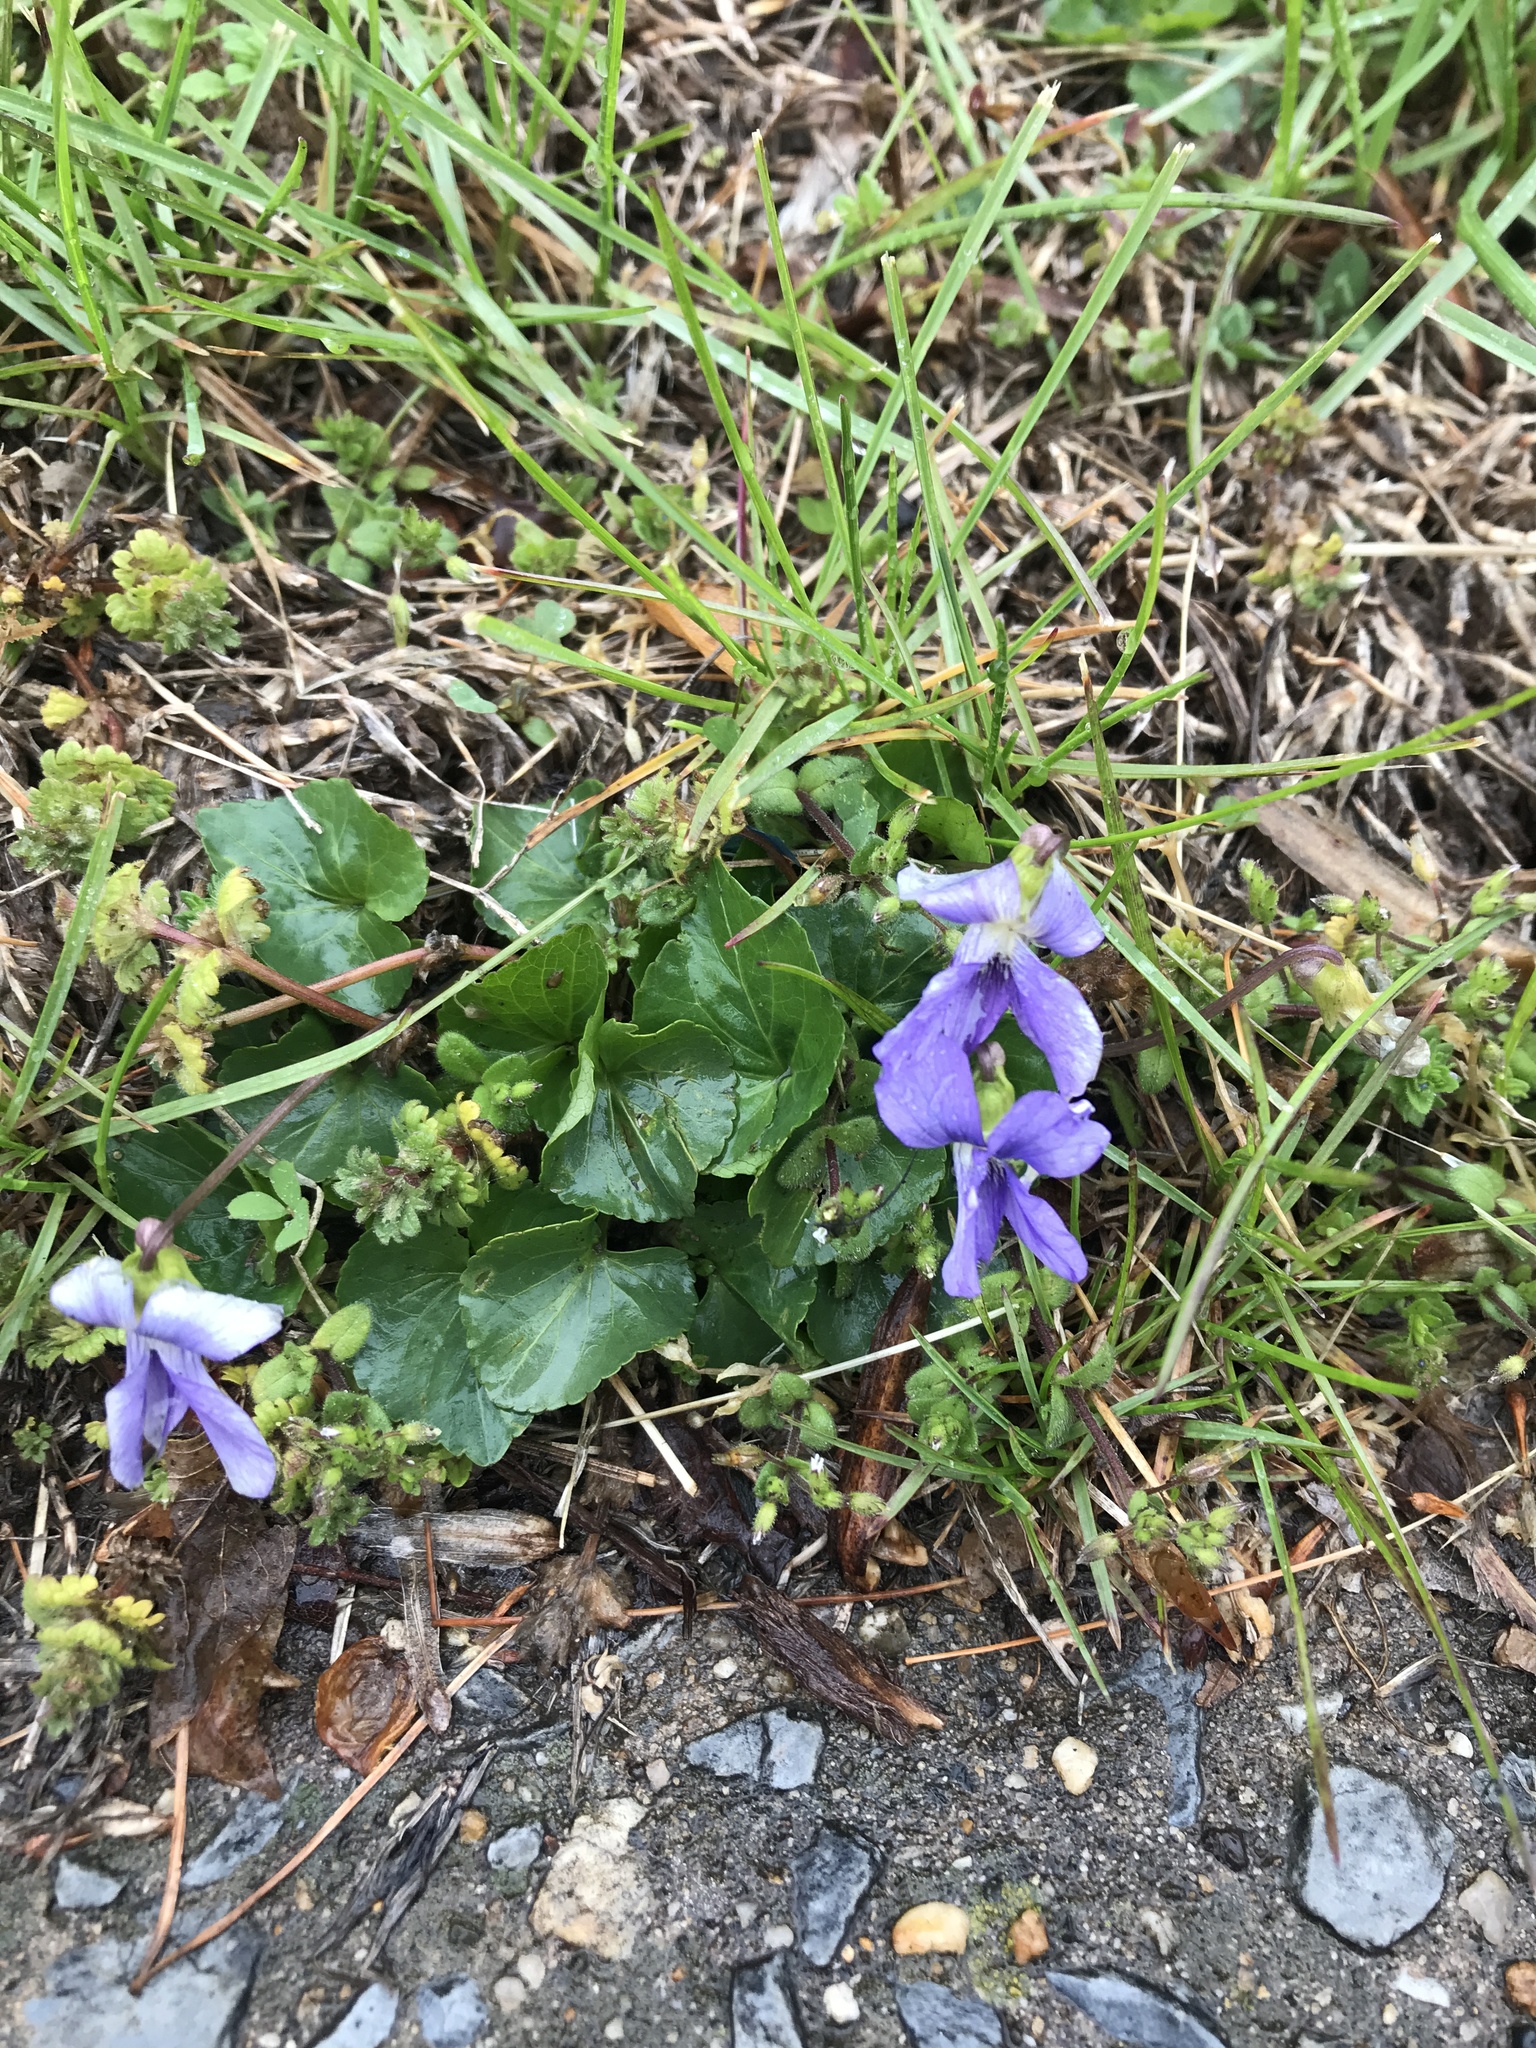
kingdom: Plantae
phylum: Tracheophyta
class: Magnoliopsida
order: Malpighiales
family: Violaceae
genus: Viola
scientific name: Viola sororia
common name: Dooryard violet
